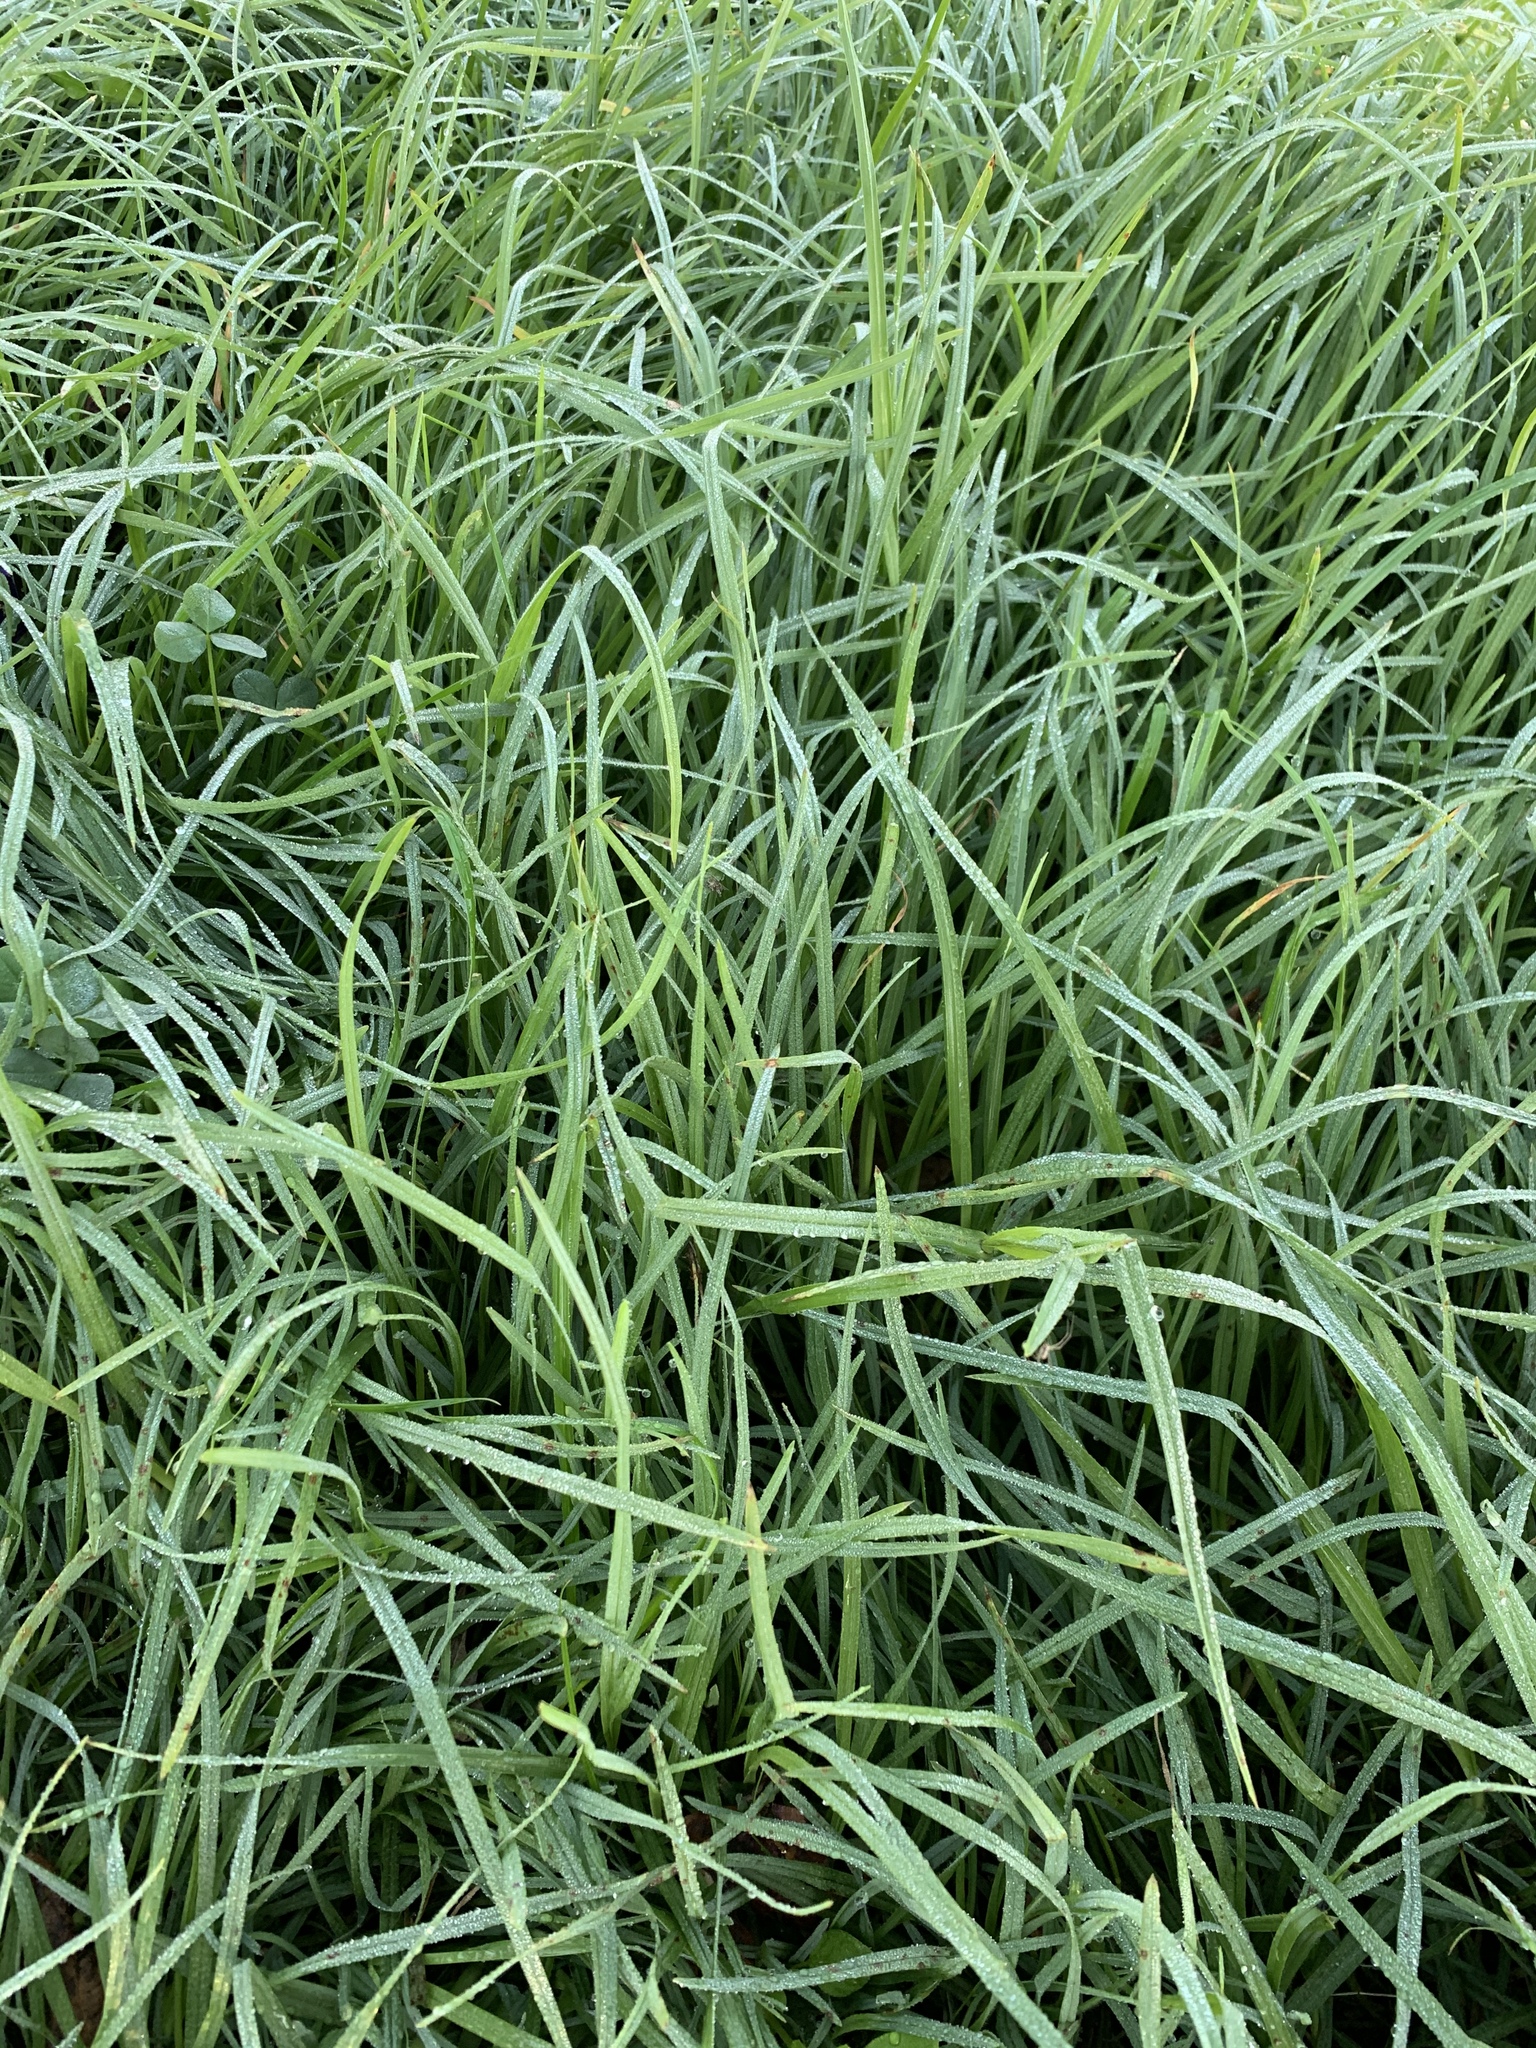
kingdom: Plantae
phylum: Tracheophyta
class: Liliopsida
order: Poales
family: Poaceae
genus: Cenchrus
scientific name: Cenchrus clandestinus
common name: Kikuyugrass
